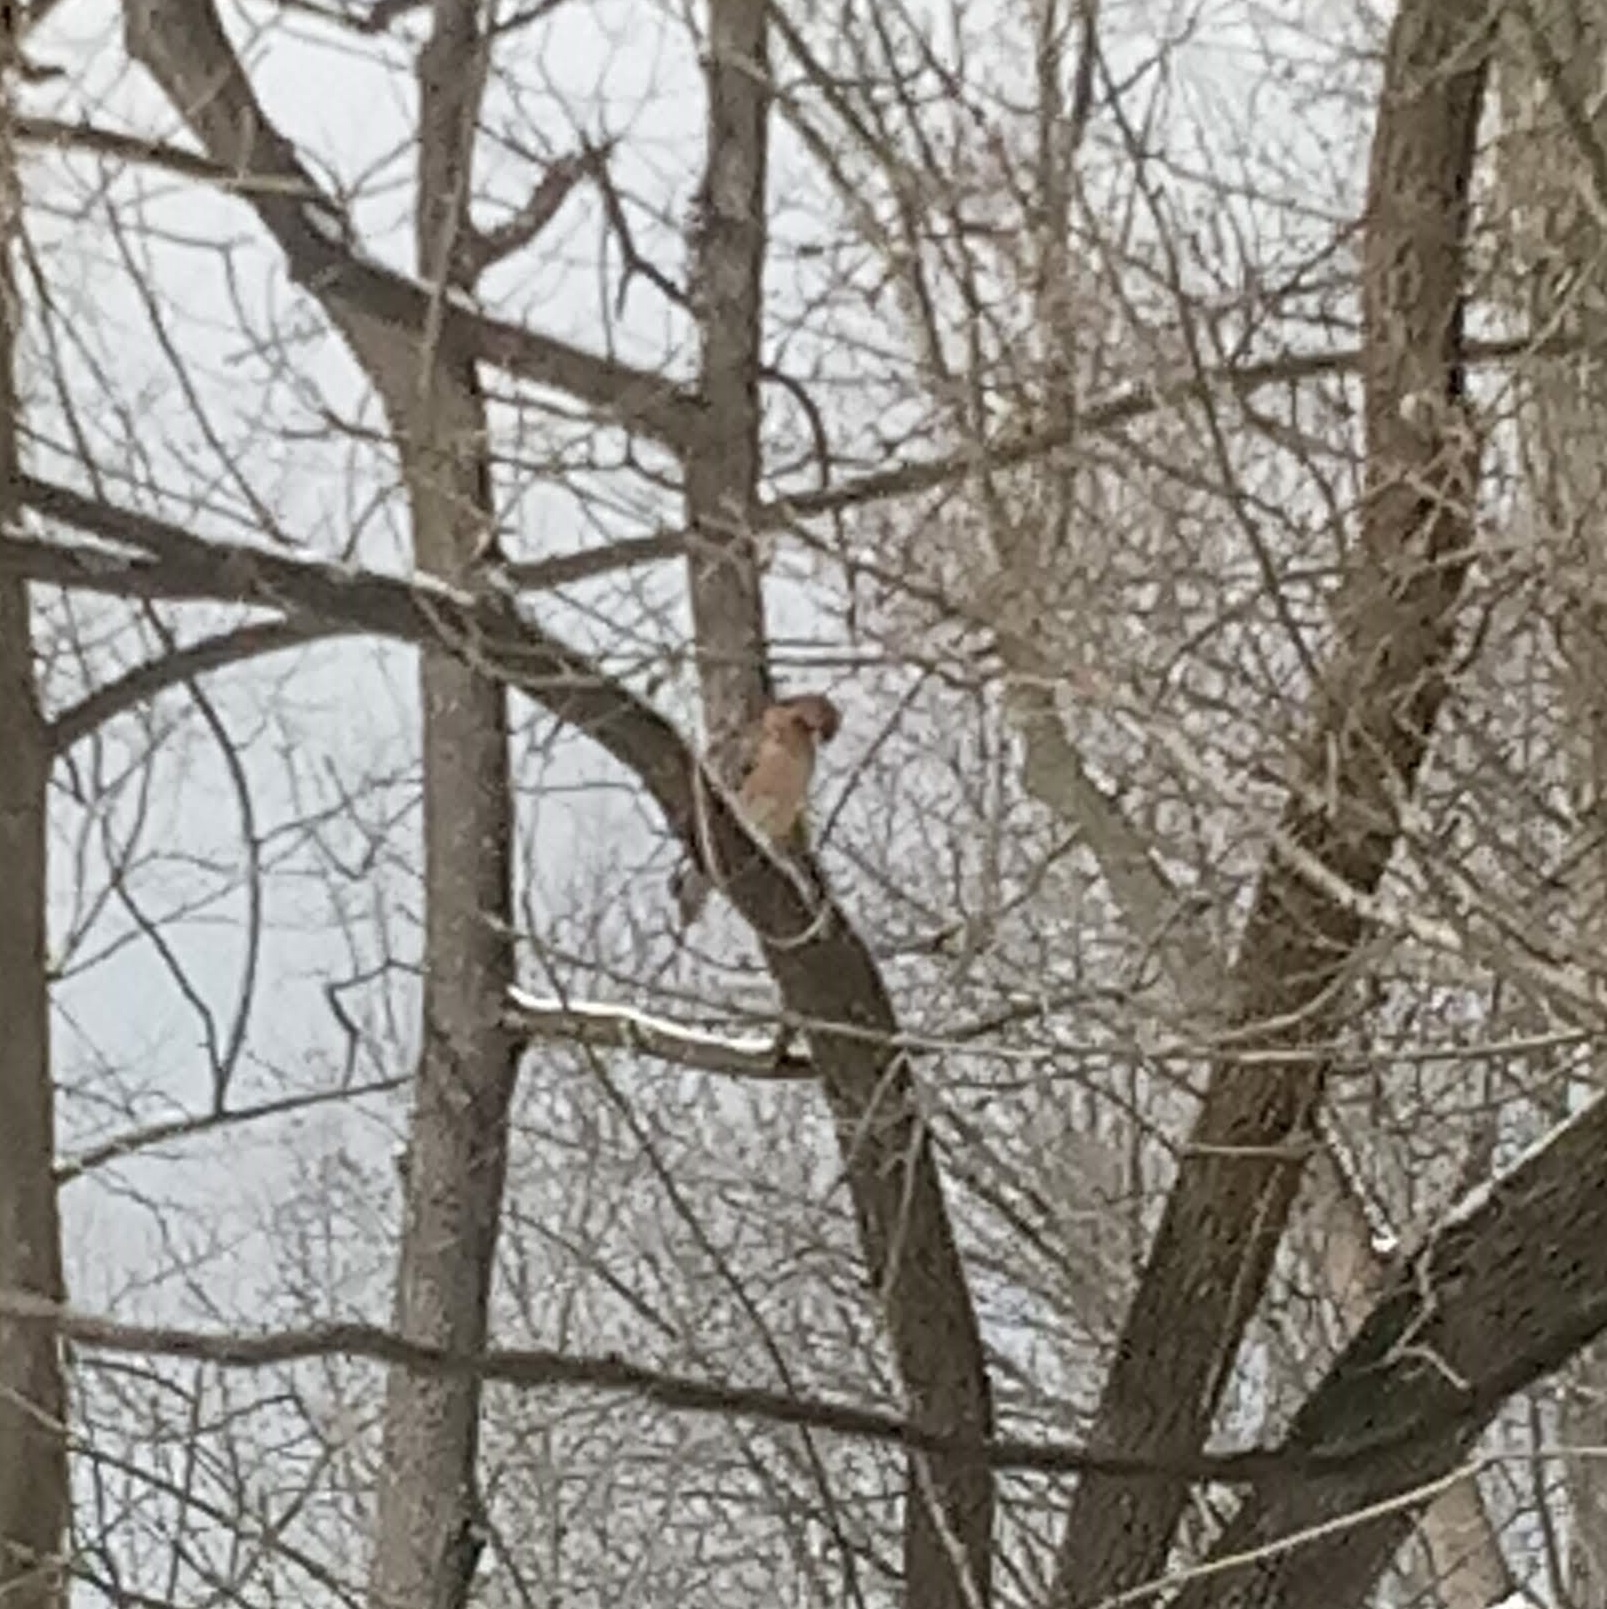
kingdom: Animalia
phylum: Chordata
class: Aves
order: Accipitriformes
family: Accipitridae
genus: Buteo
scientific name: Buteo lineatus
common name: Red-shouldered hawk
